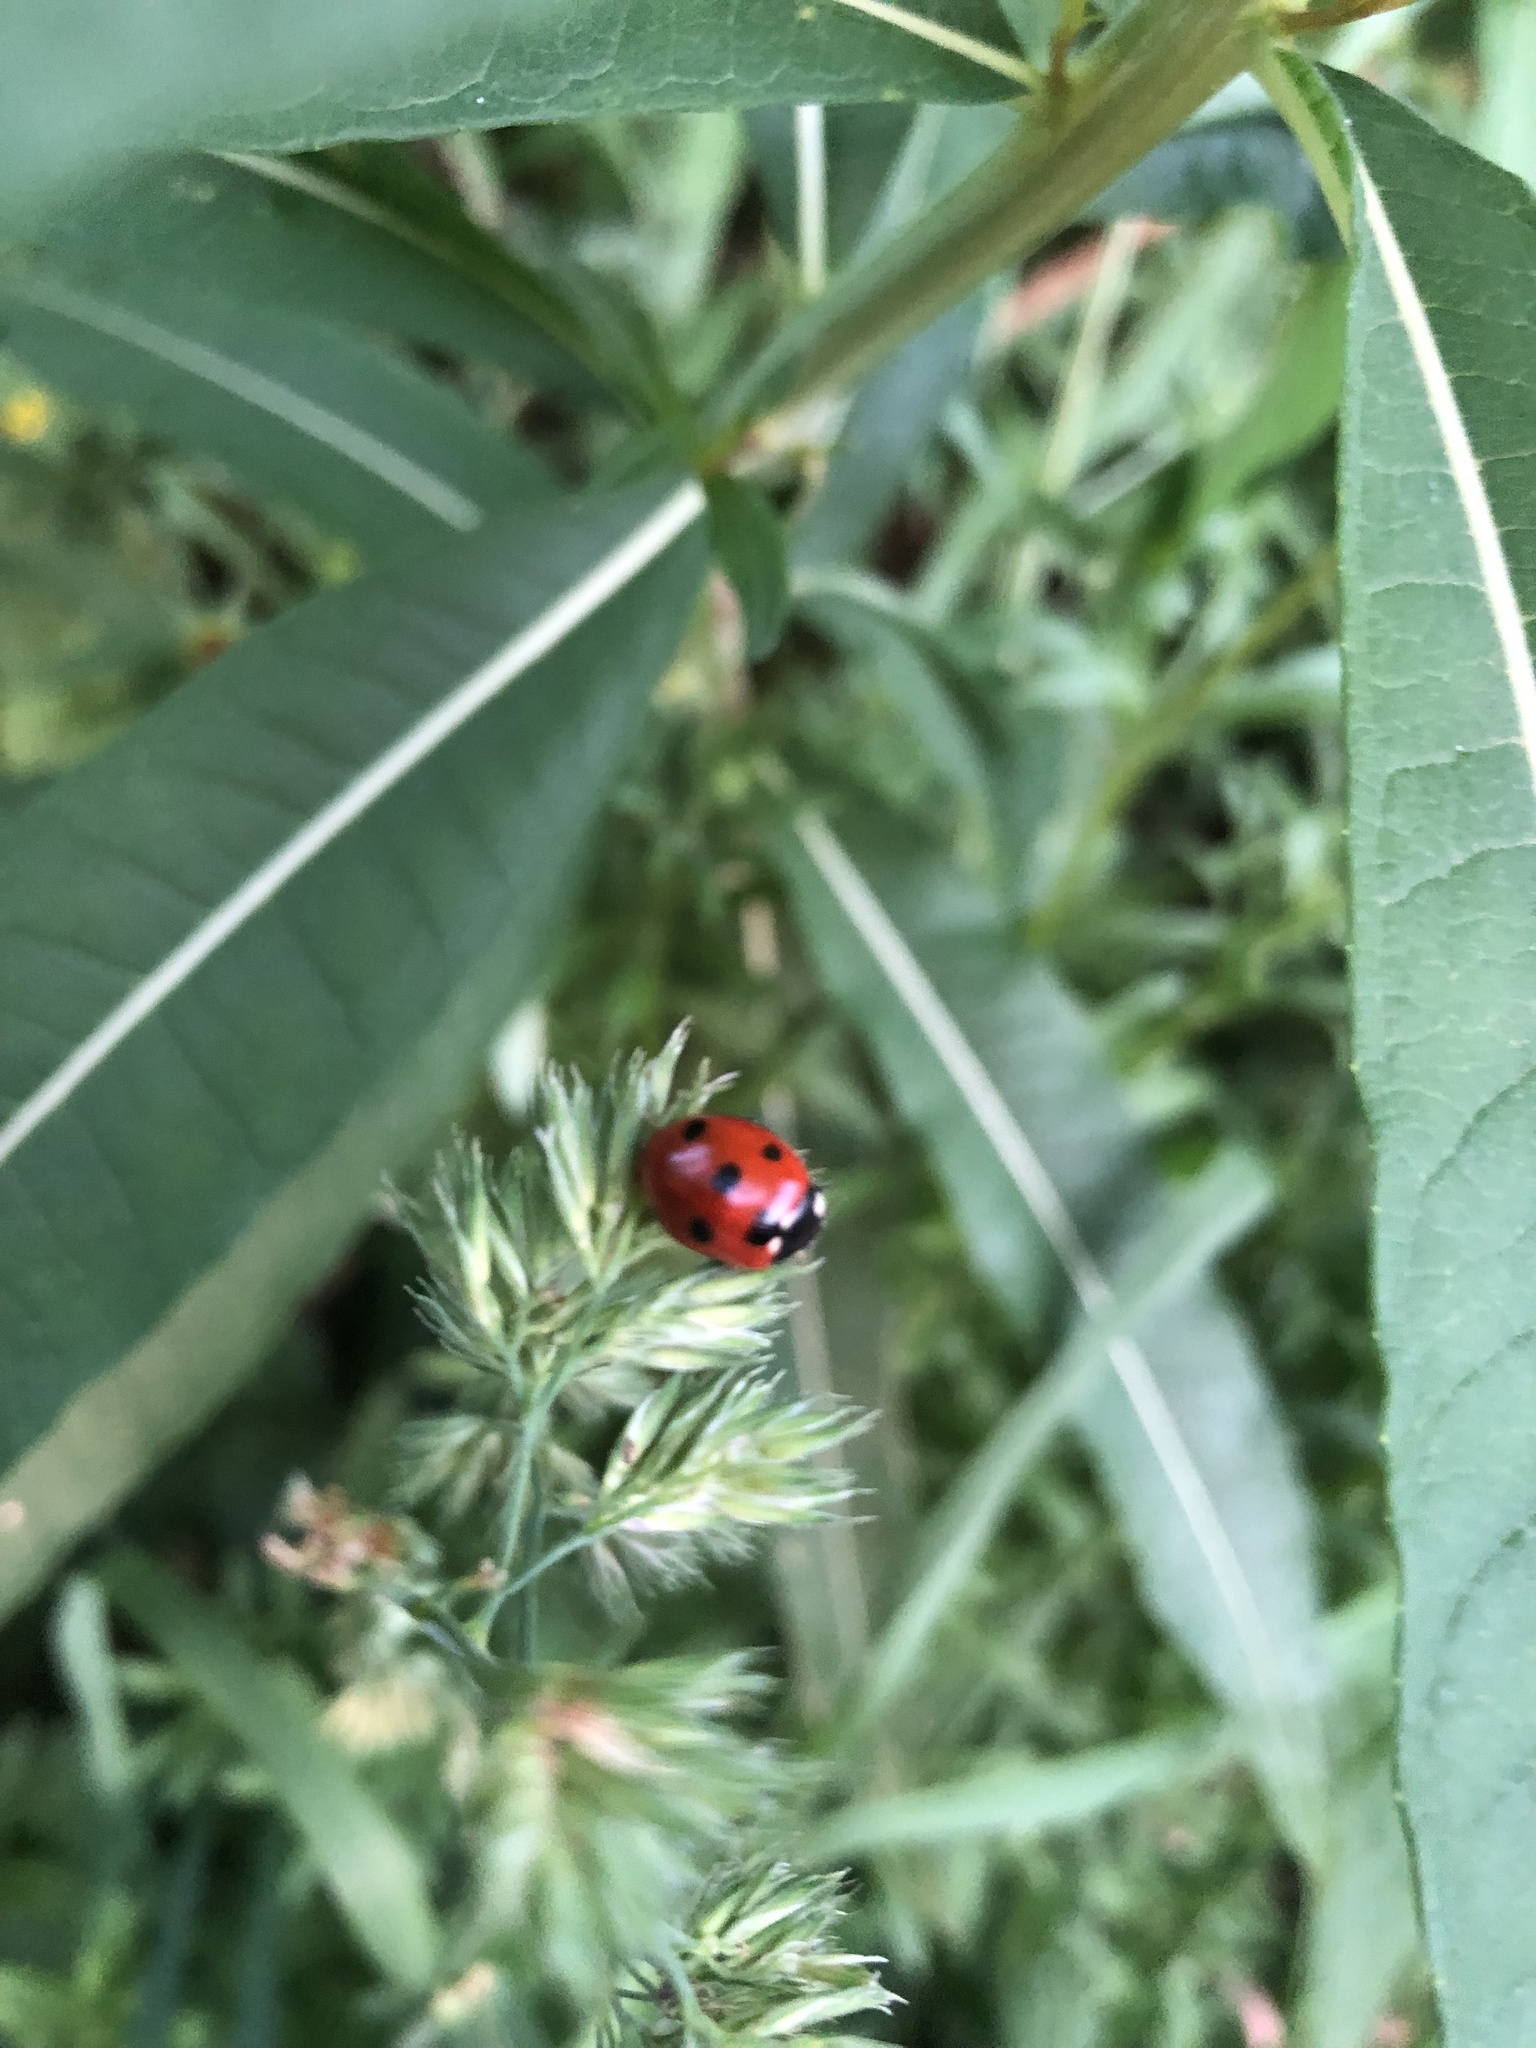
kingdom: Animalia
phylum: Arthropoda
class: Insecta
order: Coleoptera
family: Coccinellidae
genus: Coccinella
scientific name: Coccinella septempunctata
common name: Sevenspotted lady beetle
